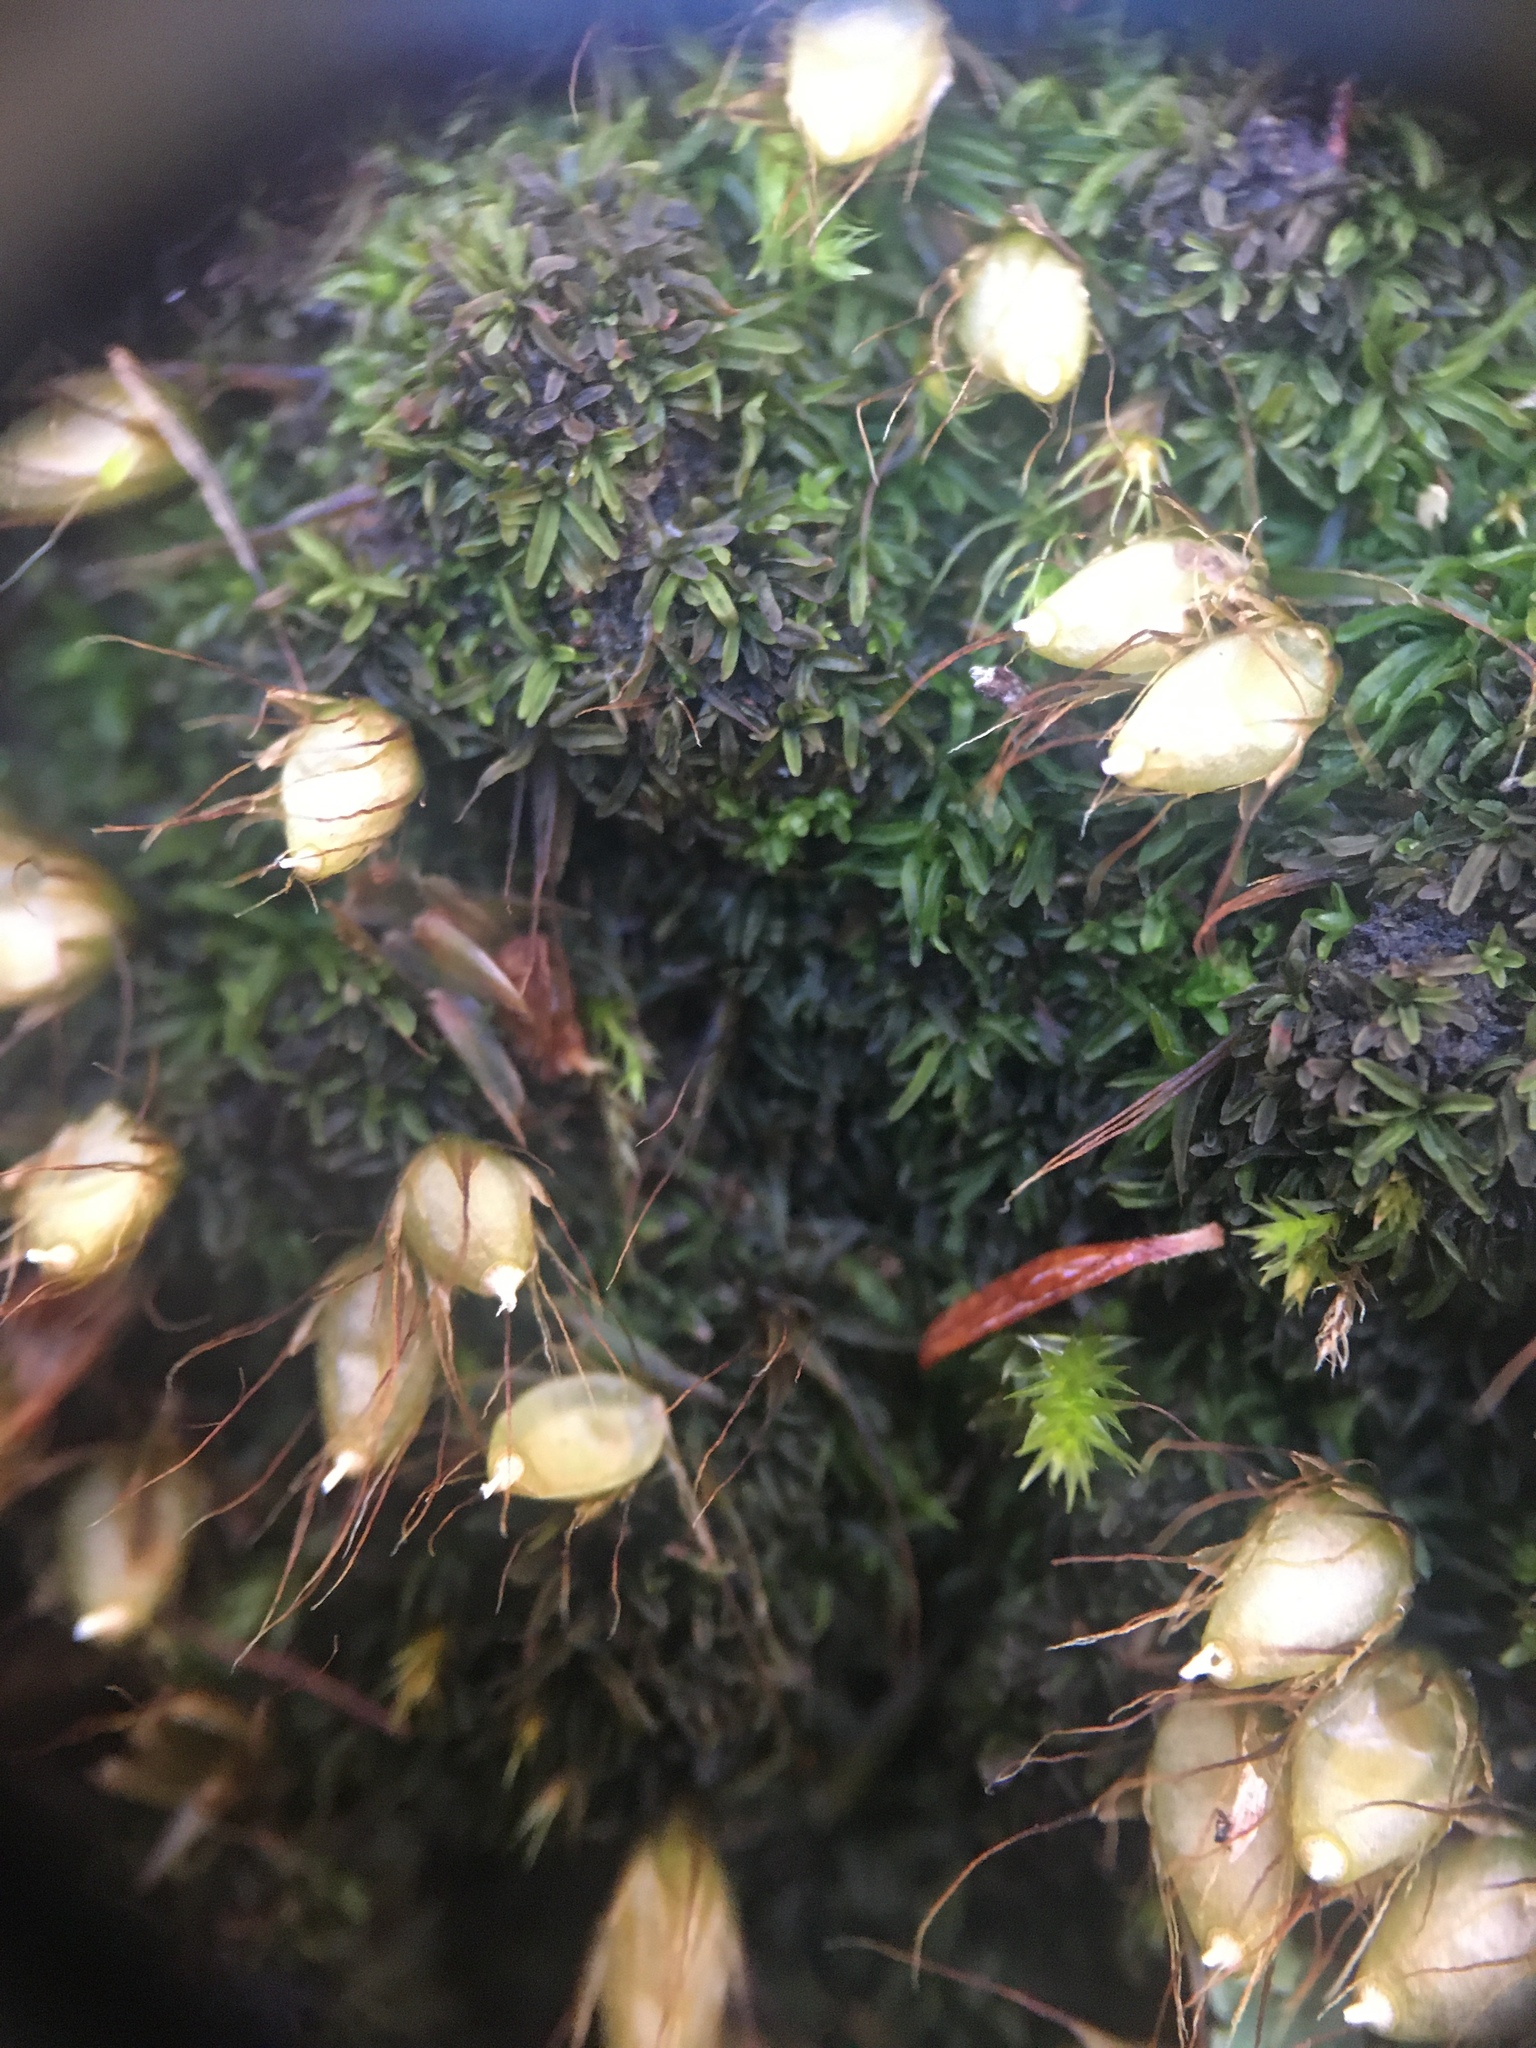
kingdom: Plantae
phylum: Bryophyta
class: Bryopsida
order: Diphysciales
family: Diphysciaceae
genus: Diphyscium
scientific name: Diphyscium foliosum
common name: Nut moss
